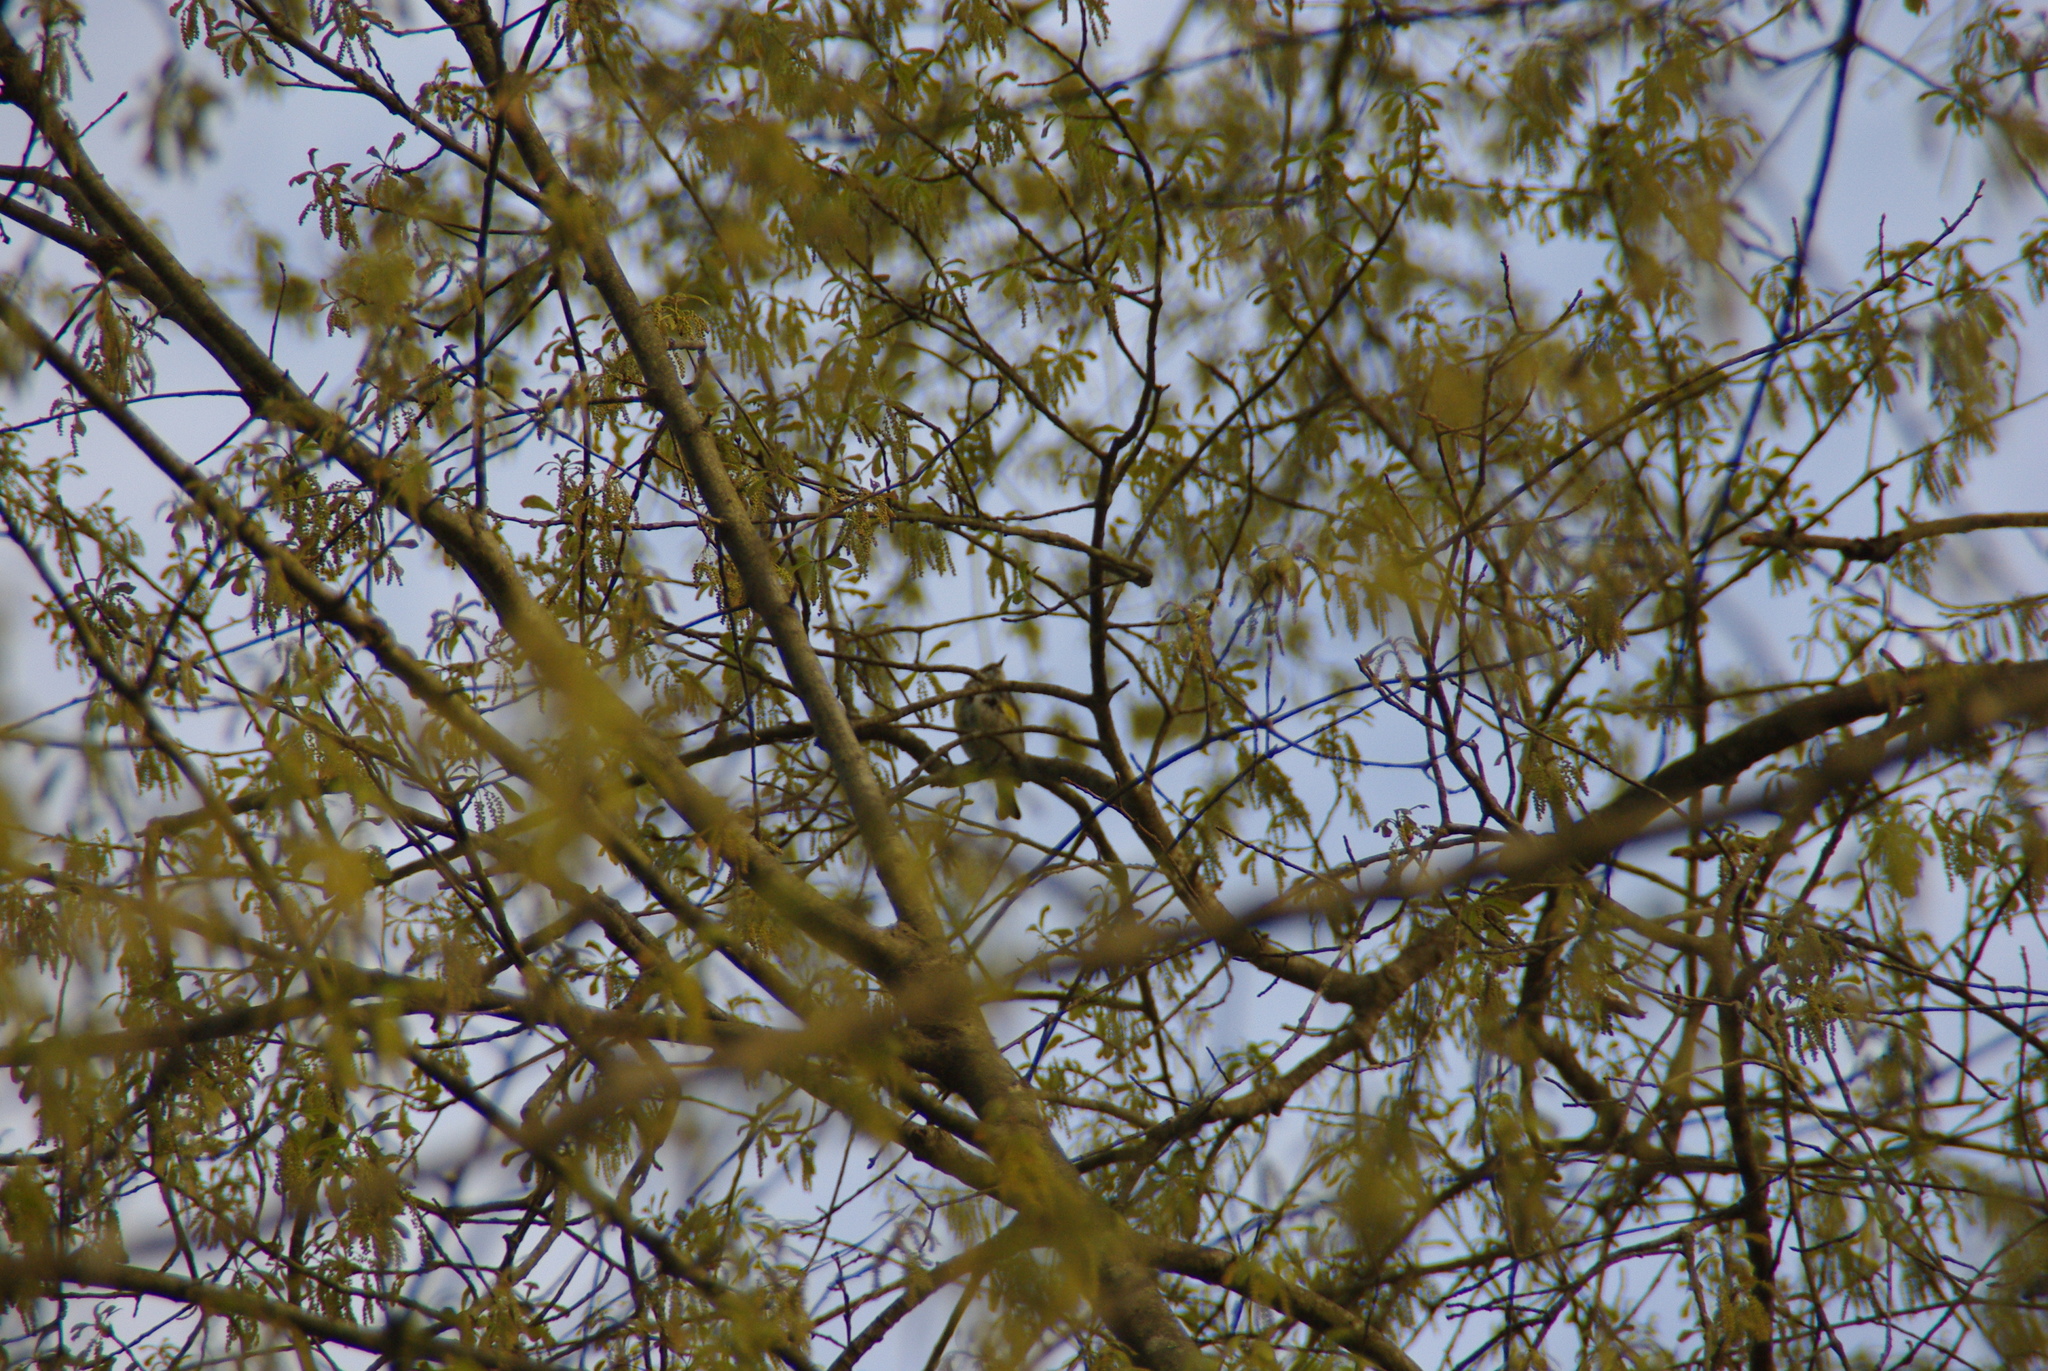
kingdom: Animalia
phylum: Chordata
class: Aves
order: Passeriformes
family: Parulidae
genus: Setophaga
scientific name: Setophaga coronata
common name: Myrtle warbler
